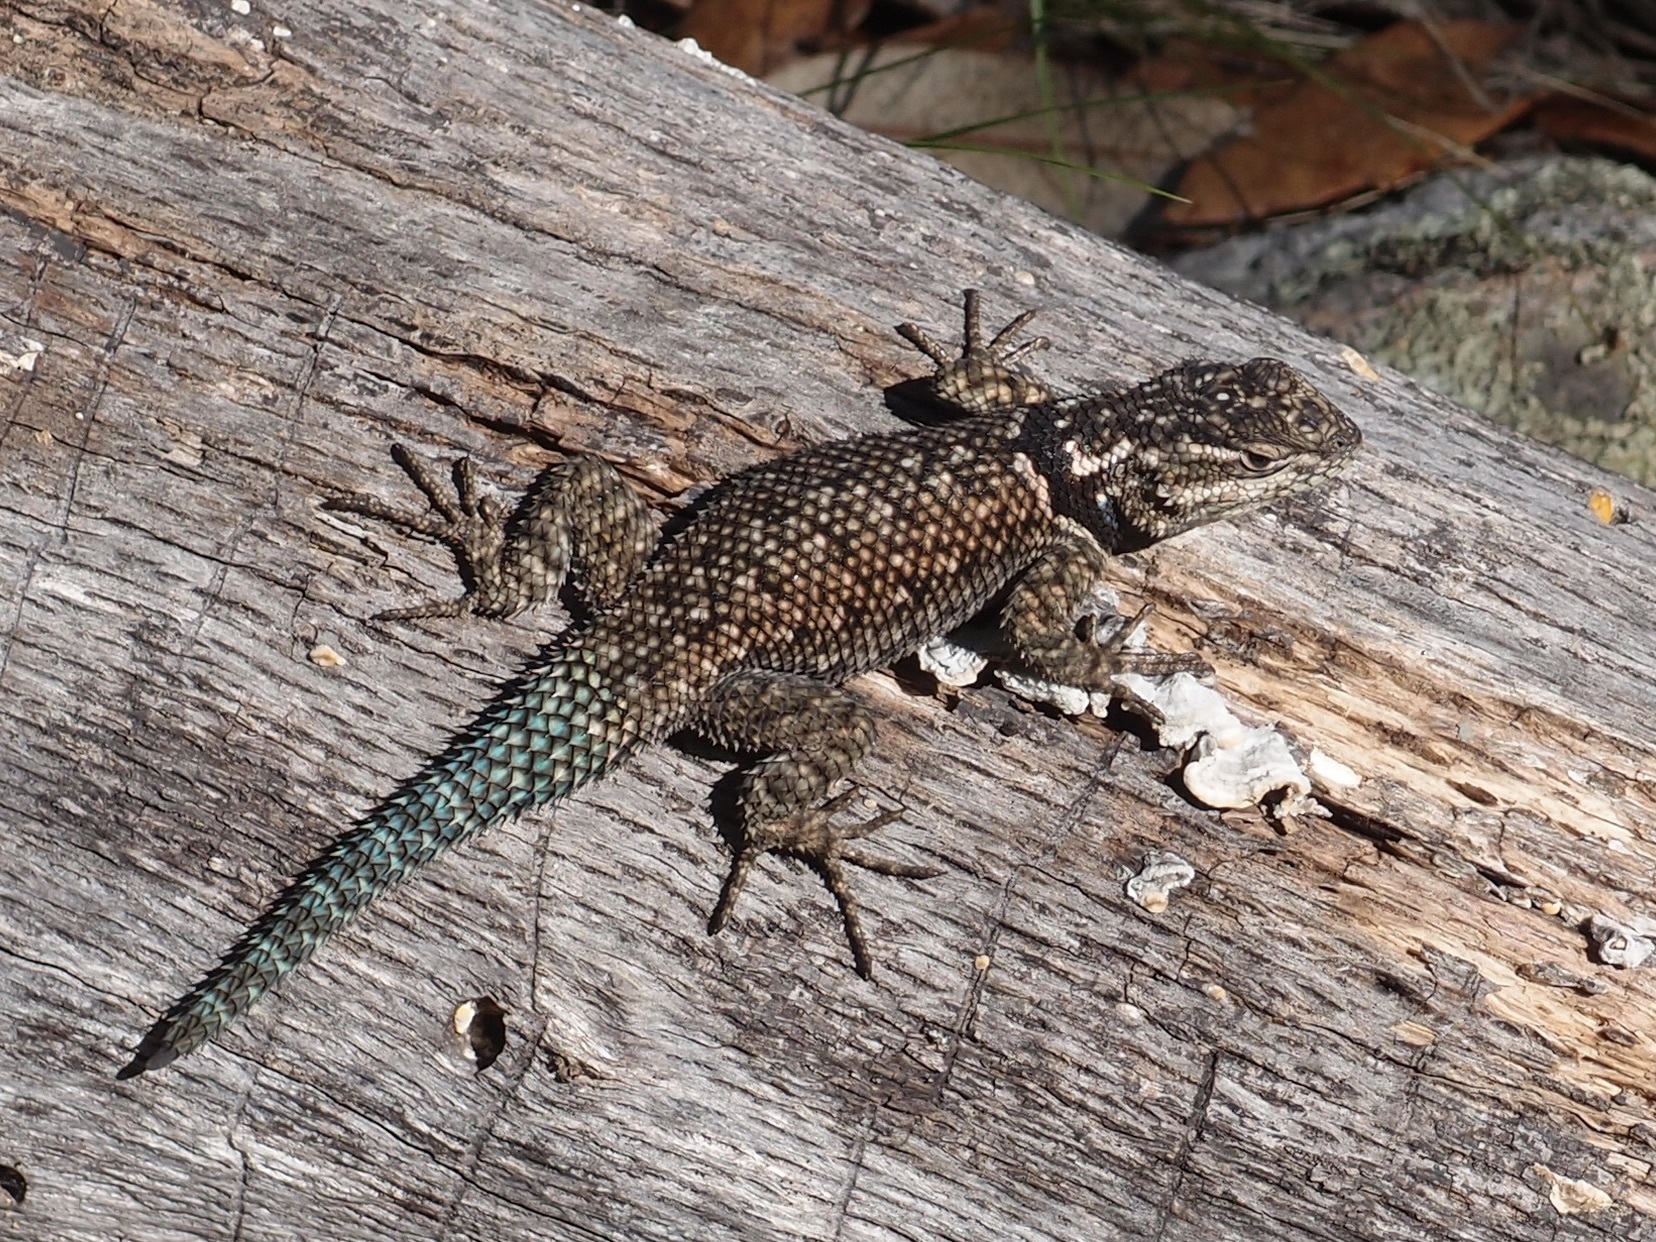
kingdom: Animalia
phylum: Chordata
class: Squamata
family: Phrynosomatidae
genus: Sceloporus
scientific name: Sceloporus jarrovii
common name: Yarrow's spiny lizard
